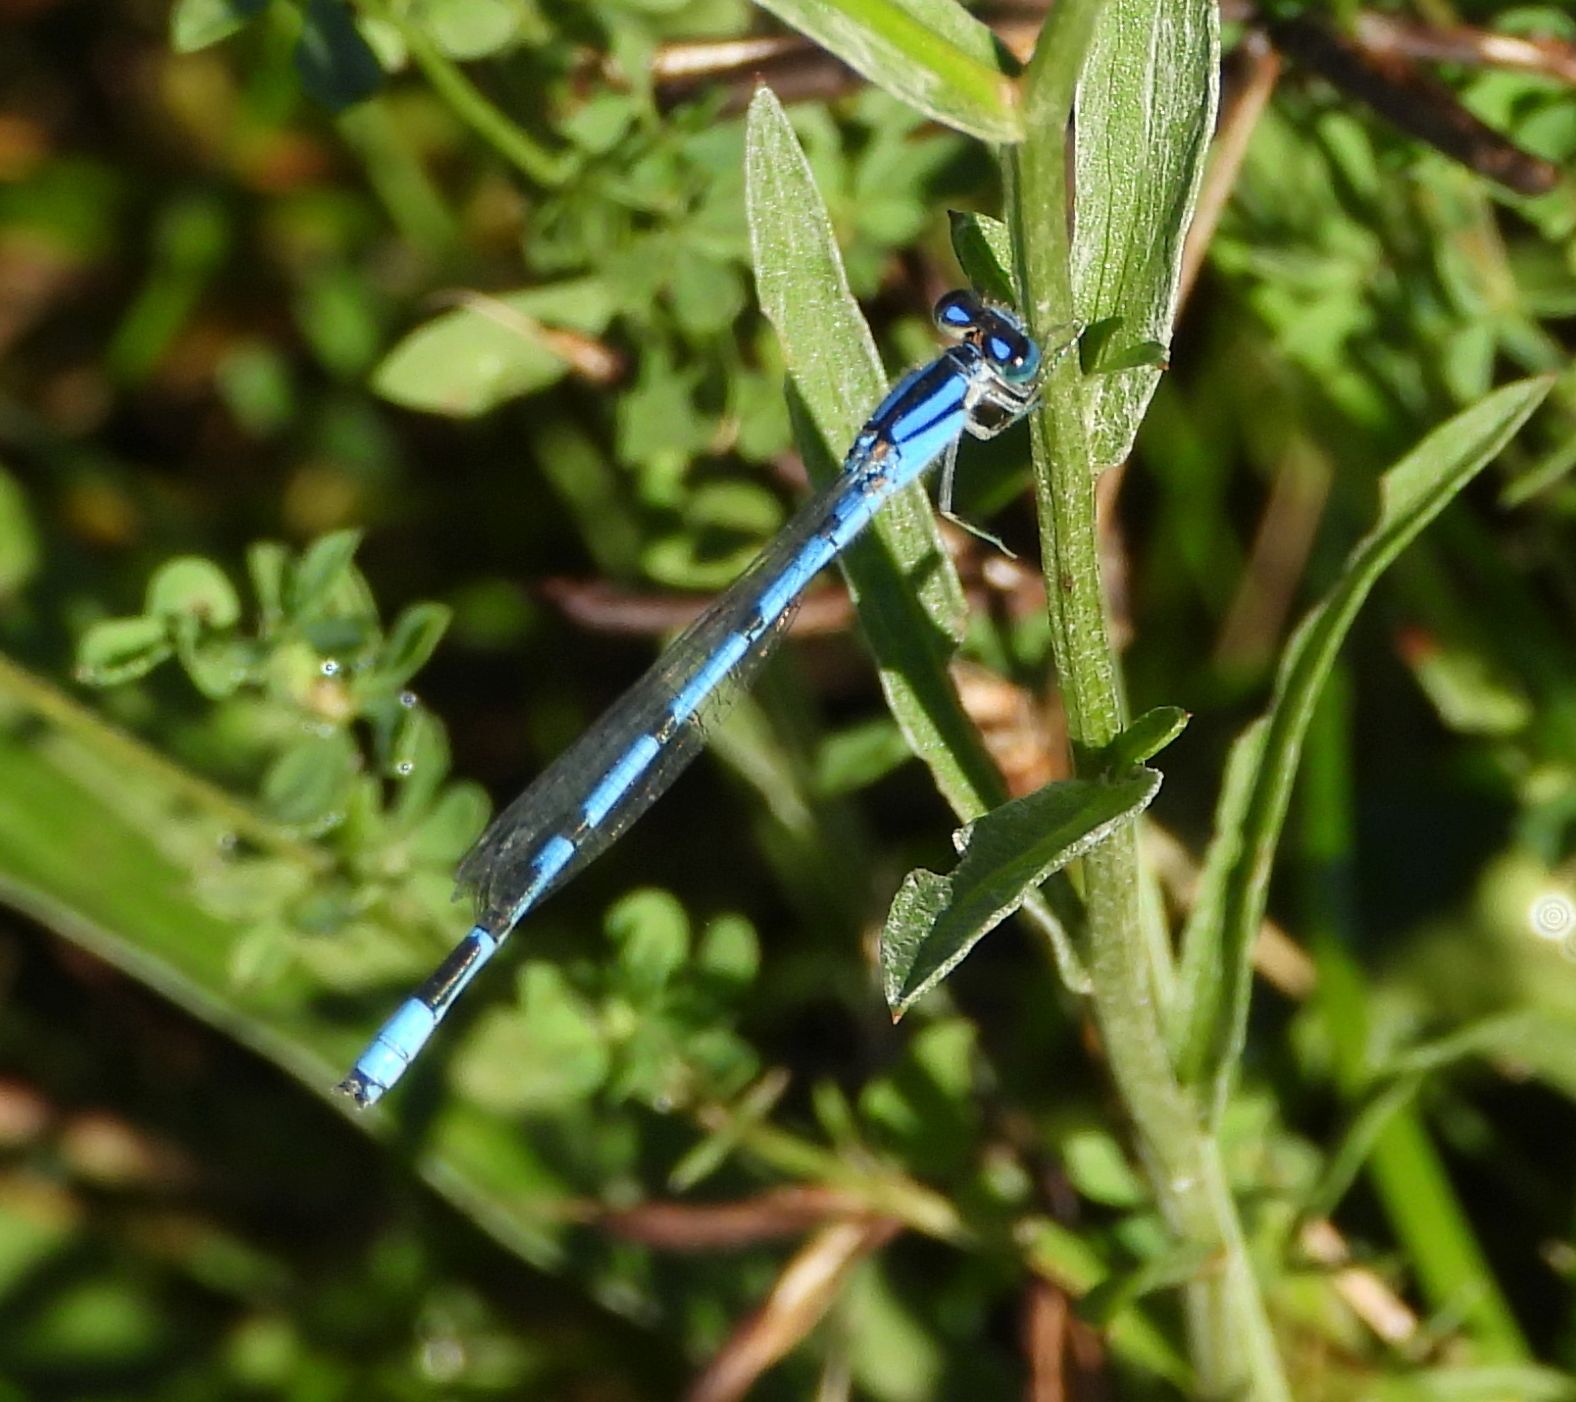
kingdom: Animalia
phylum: Arthropoda
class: Insecta
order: Odonata
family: Coenagrionidae
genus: Enallagma
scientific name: Enallagma civile
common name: Damselfly
